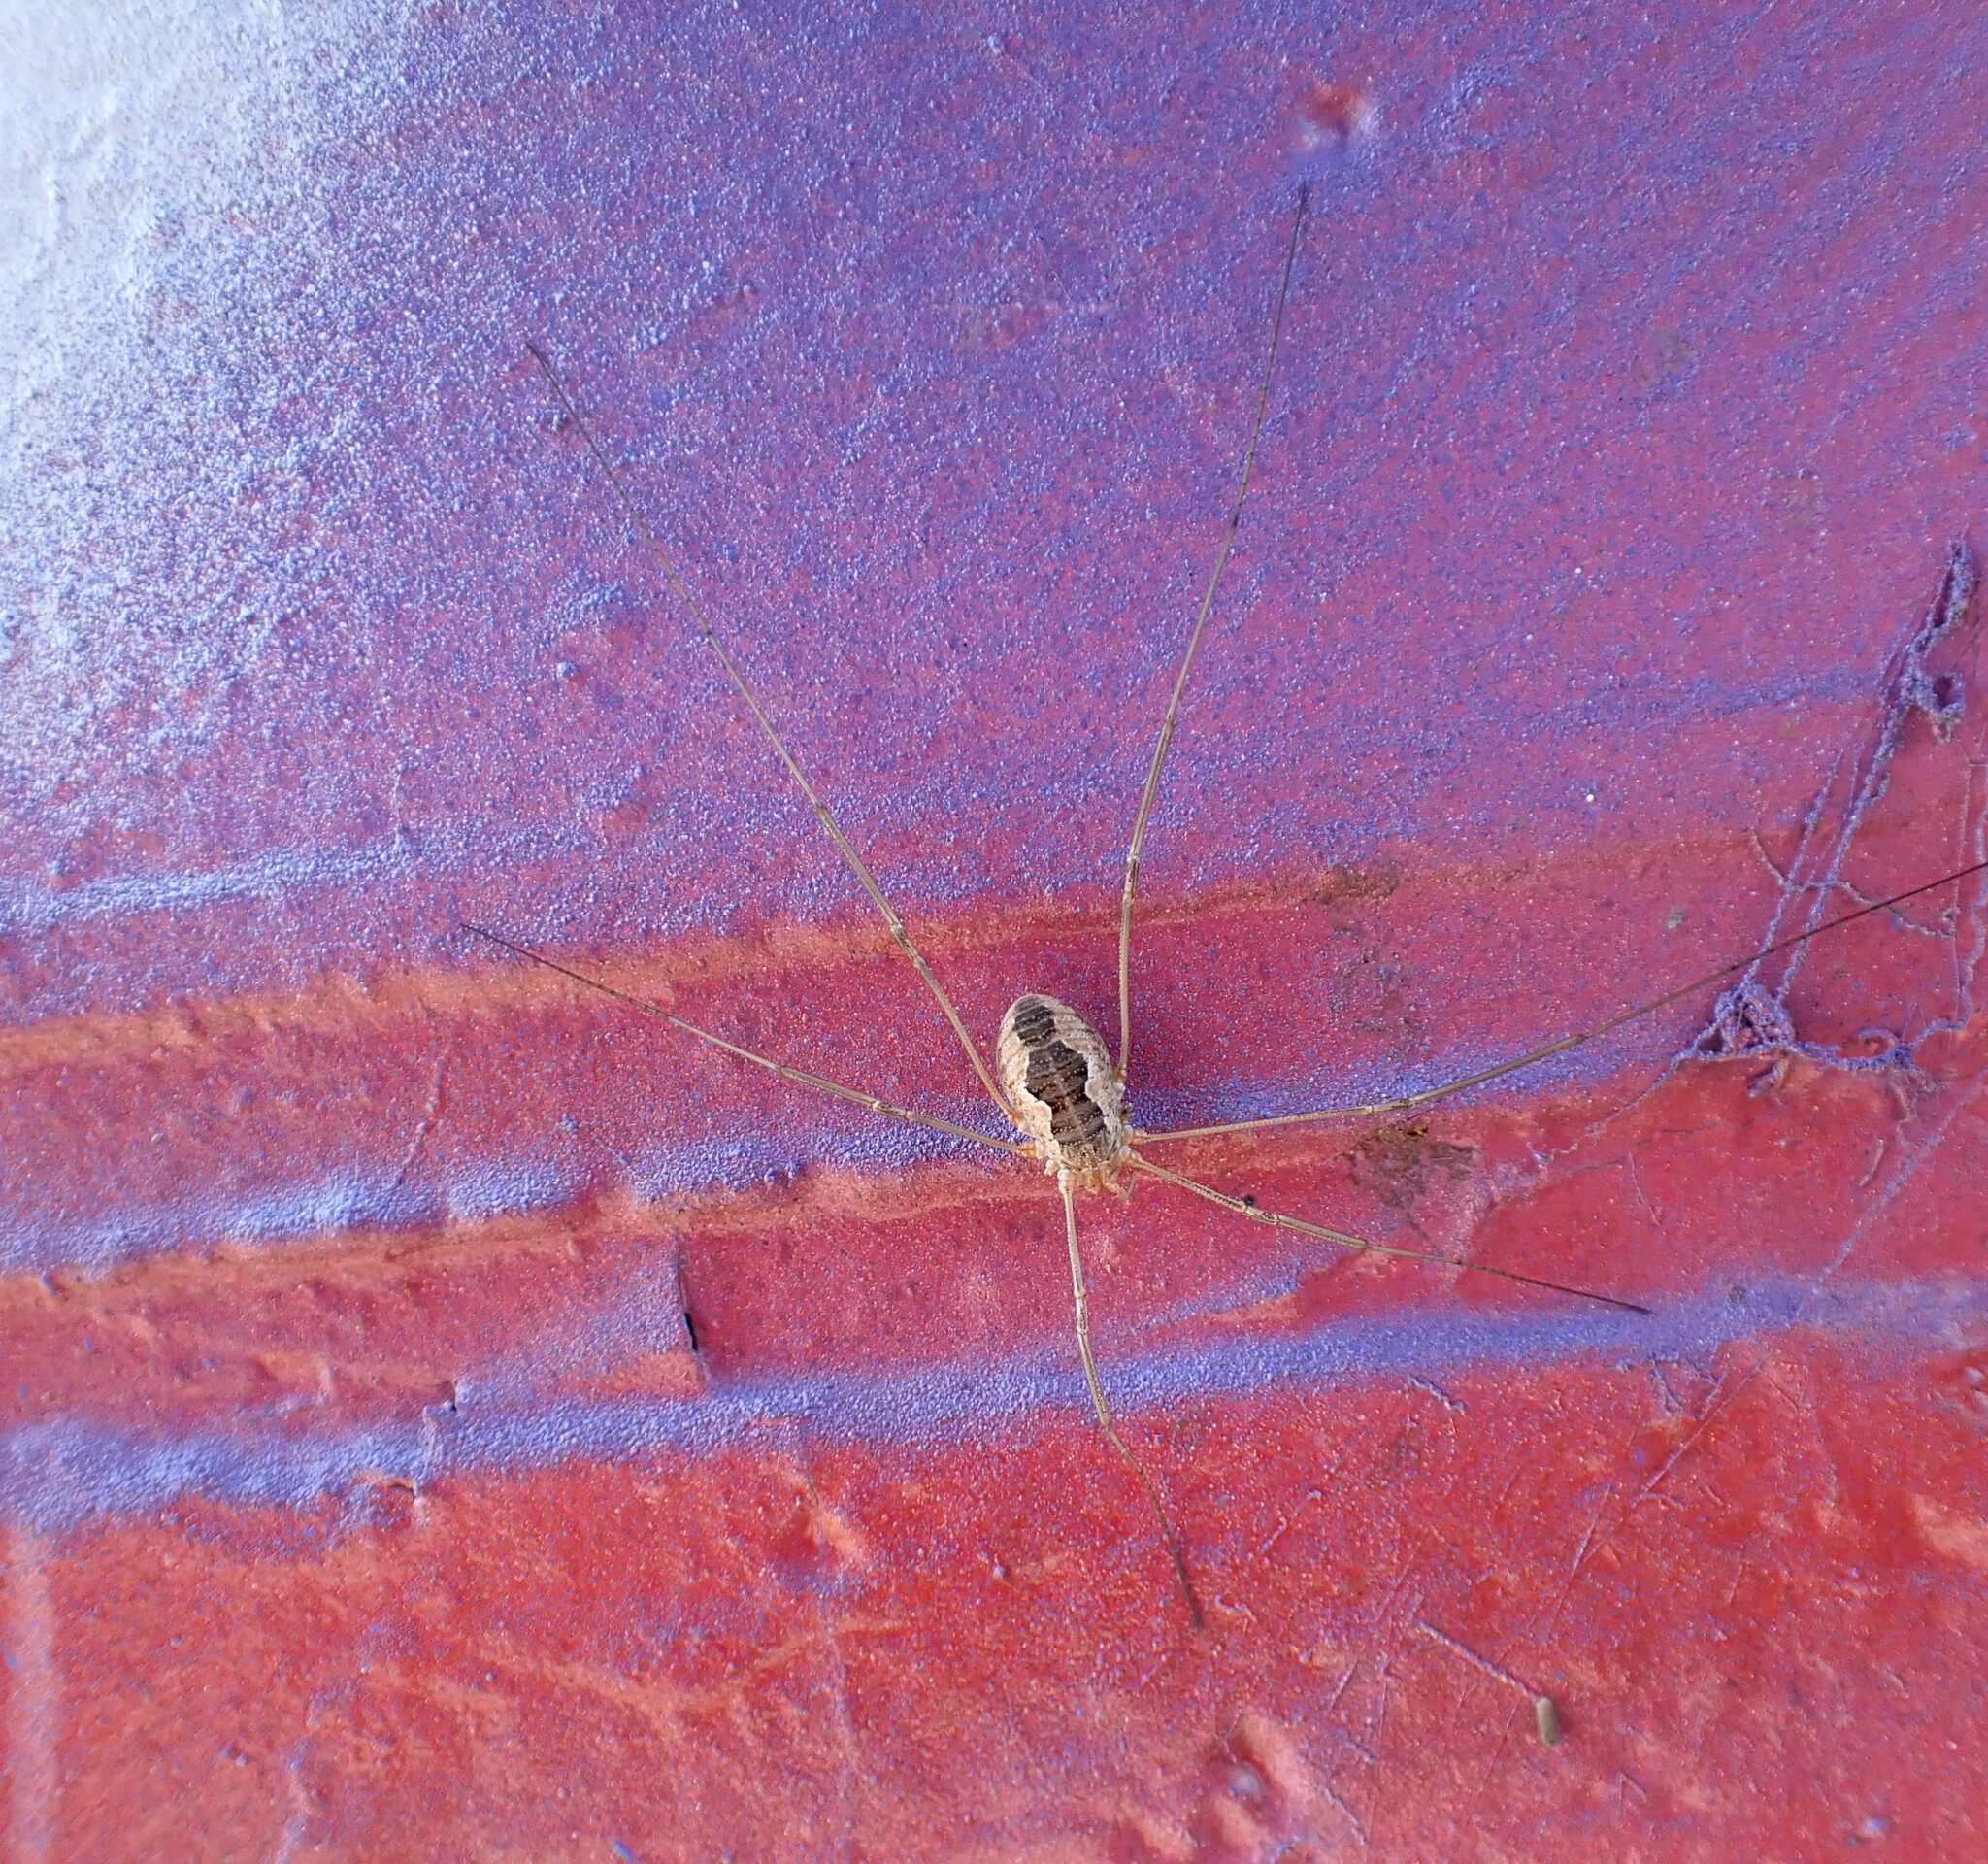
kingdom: Animalia
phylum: Arthropoda
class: Arachnida
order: Opiliones
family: Phalangiidae
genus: Phalangium
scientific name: Phalangium opilio
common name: Daddy longleg
